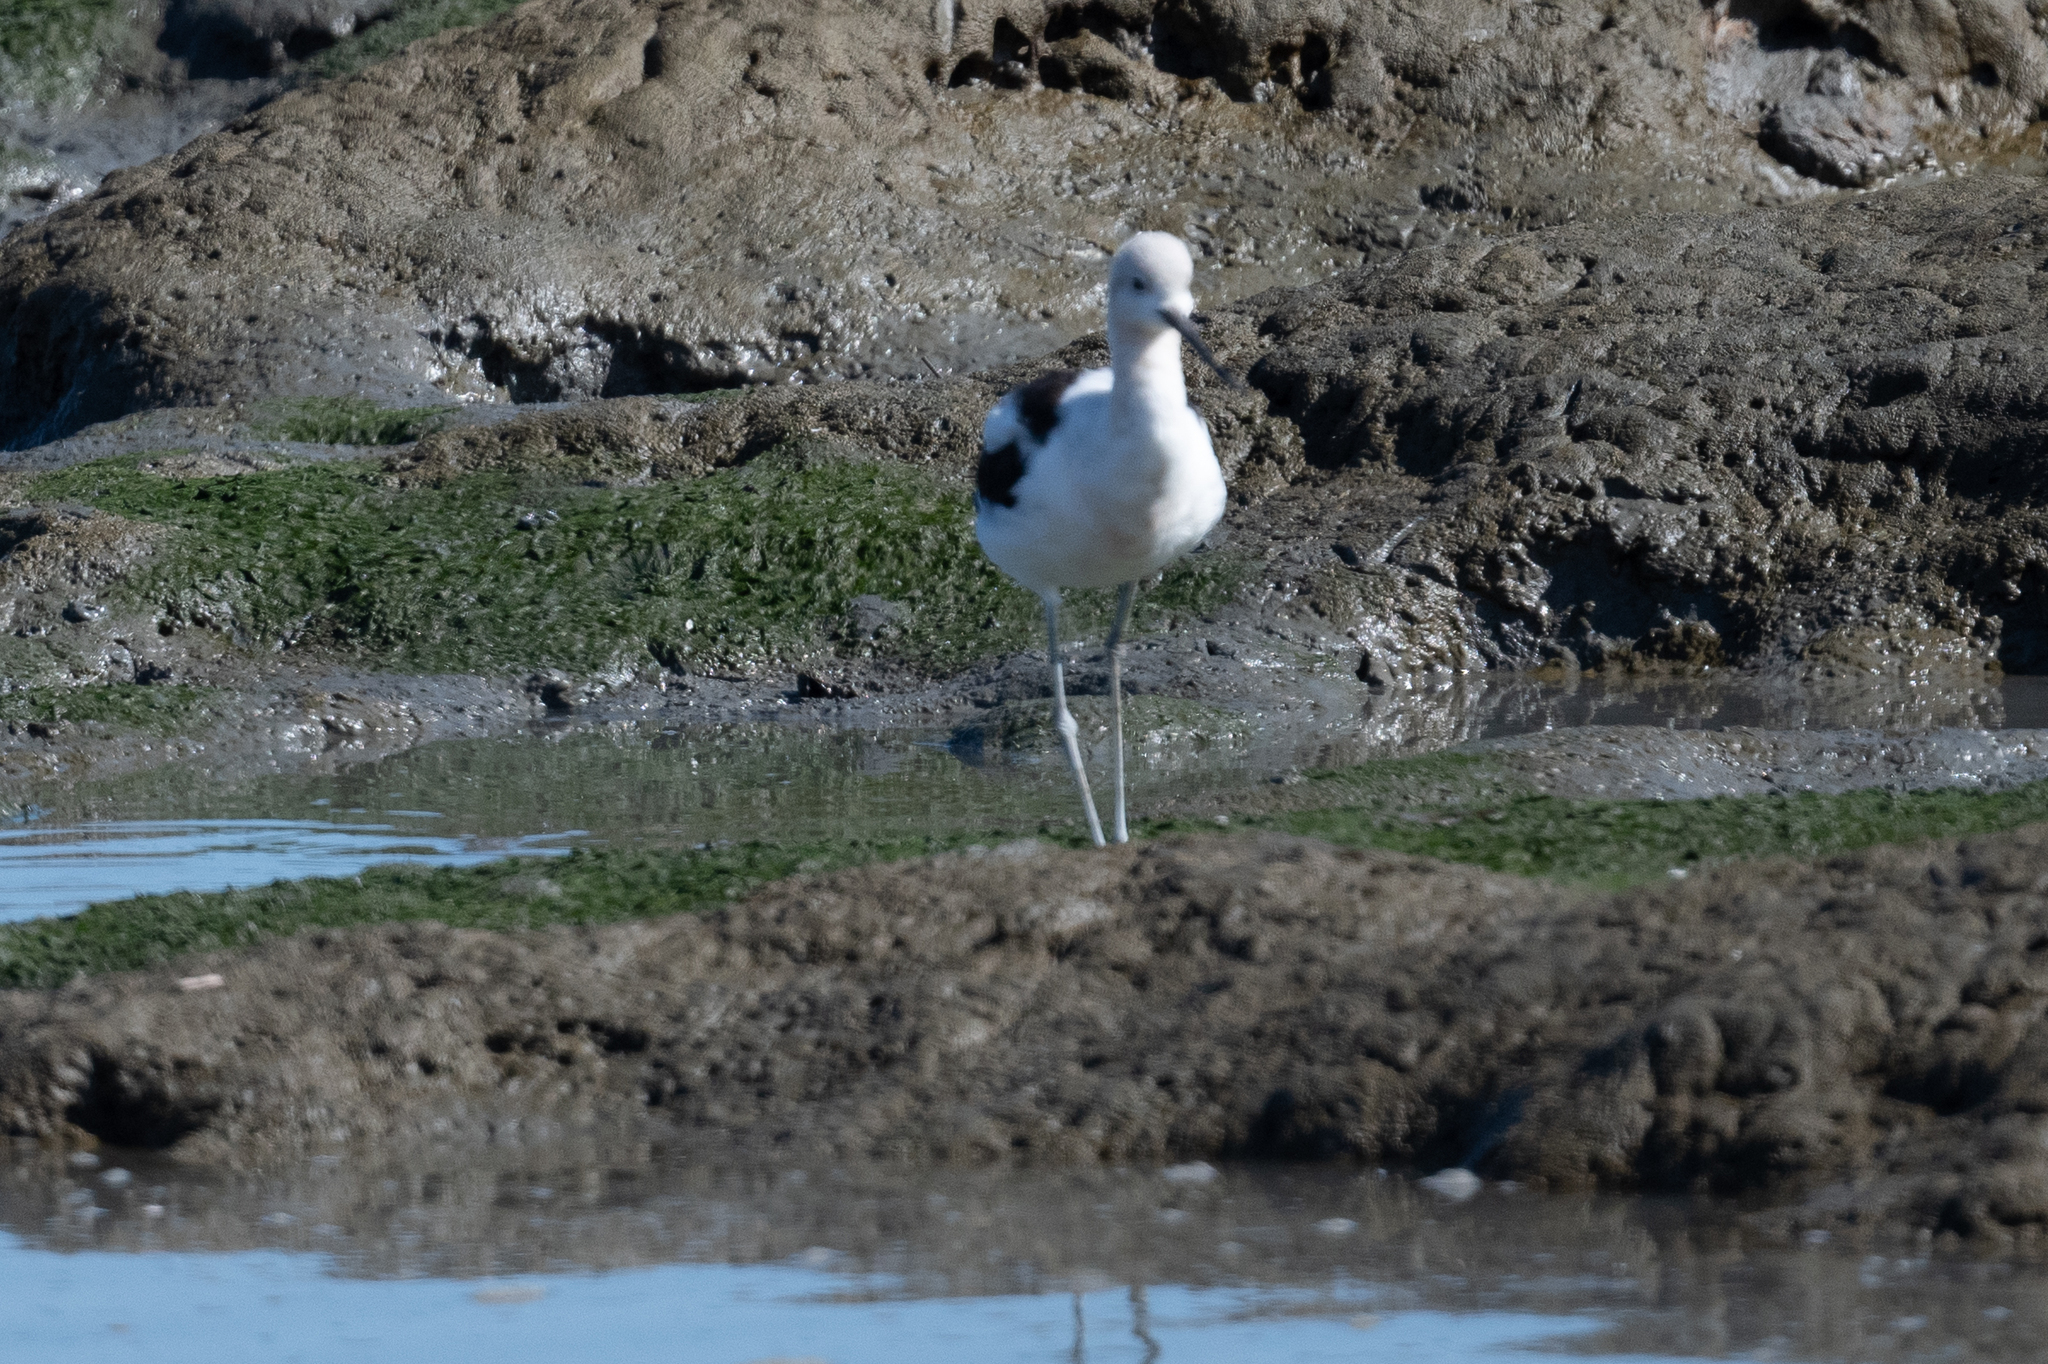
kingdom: Animalia
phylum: Chordata
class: Aves
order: Charadriiformes
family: Recurvirostridae
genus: Recurvirostra
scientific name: Recurvirostra americana
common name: American avocet
